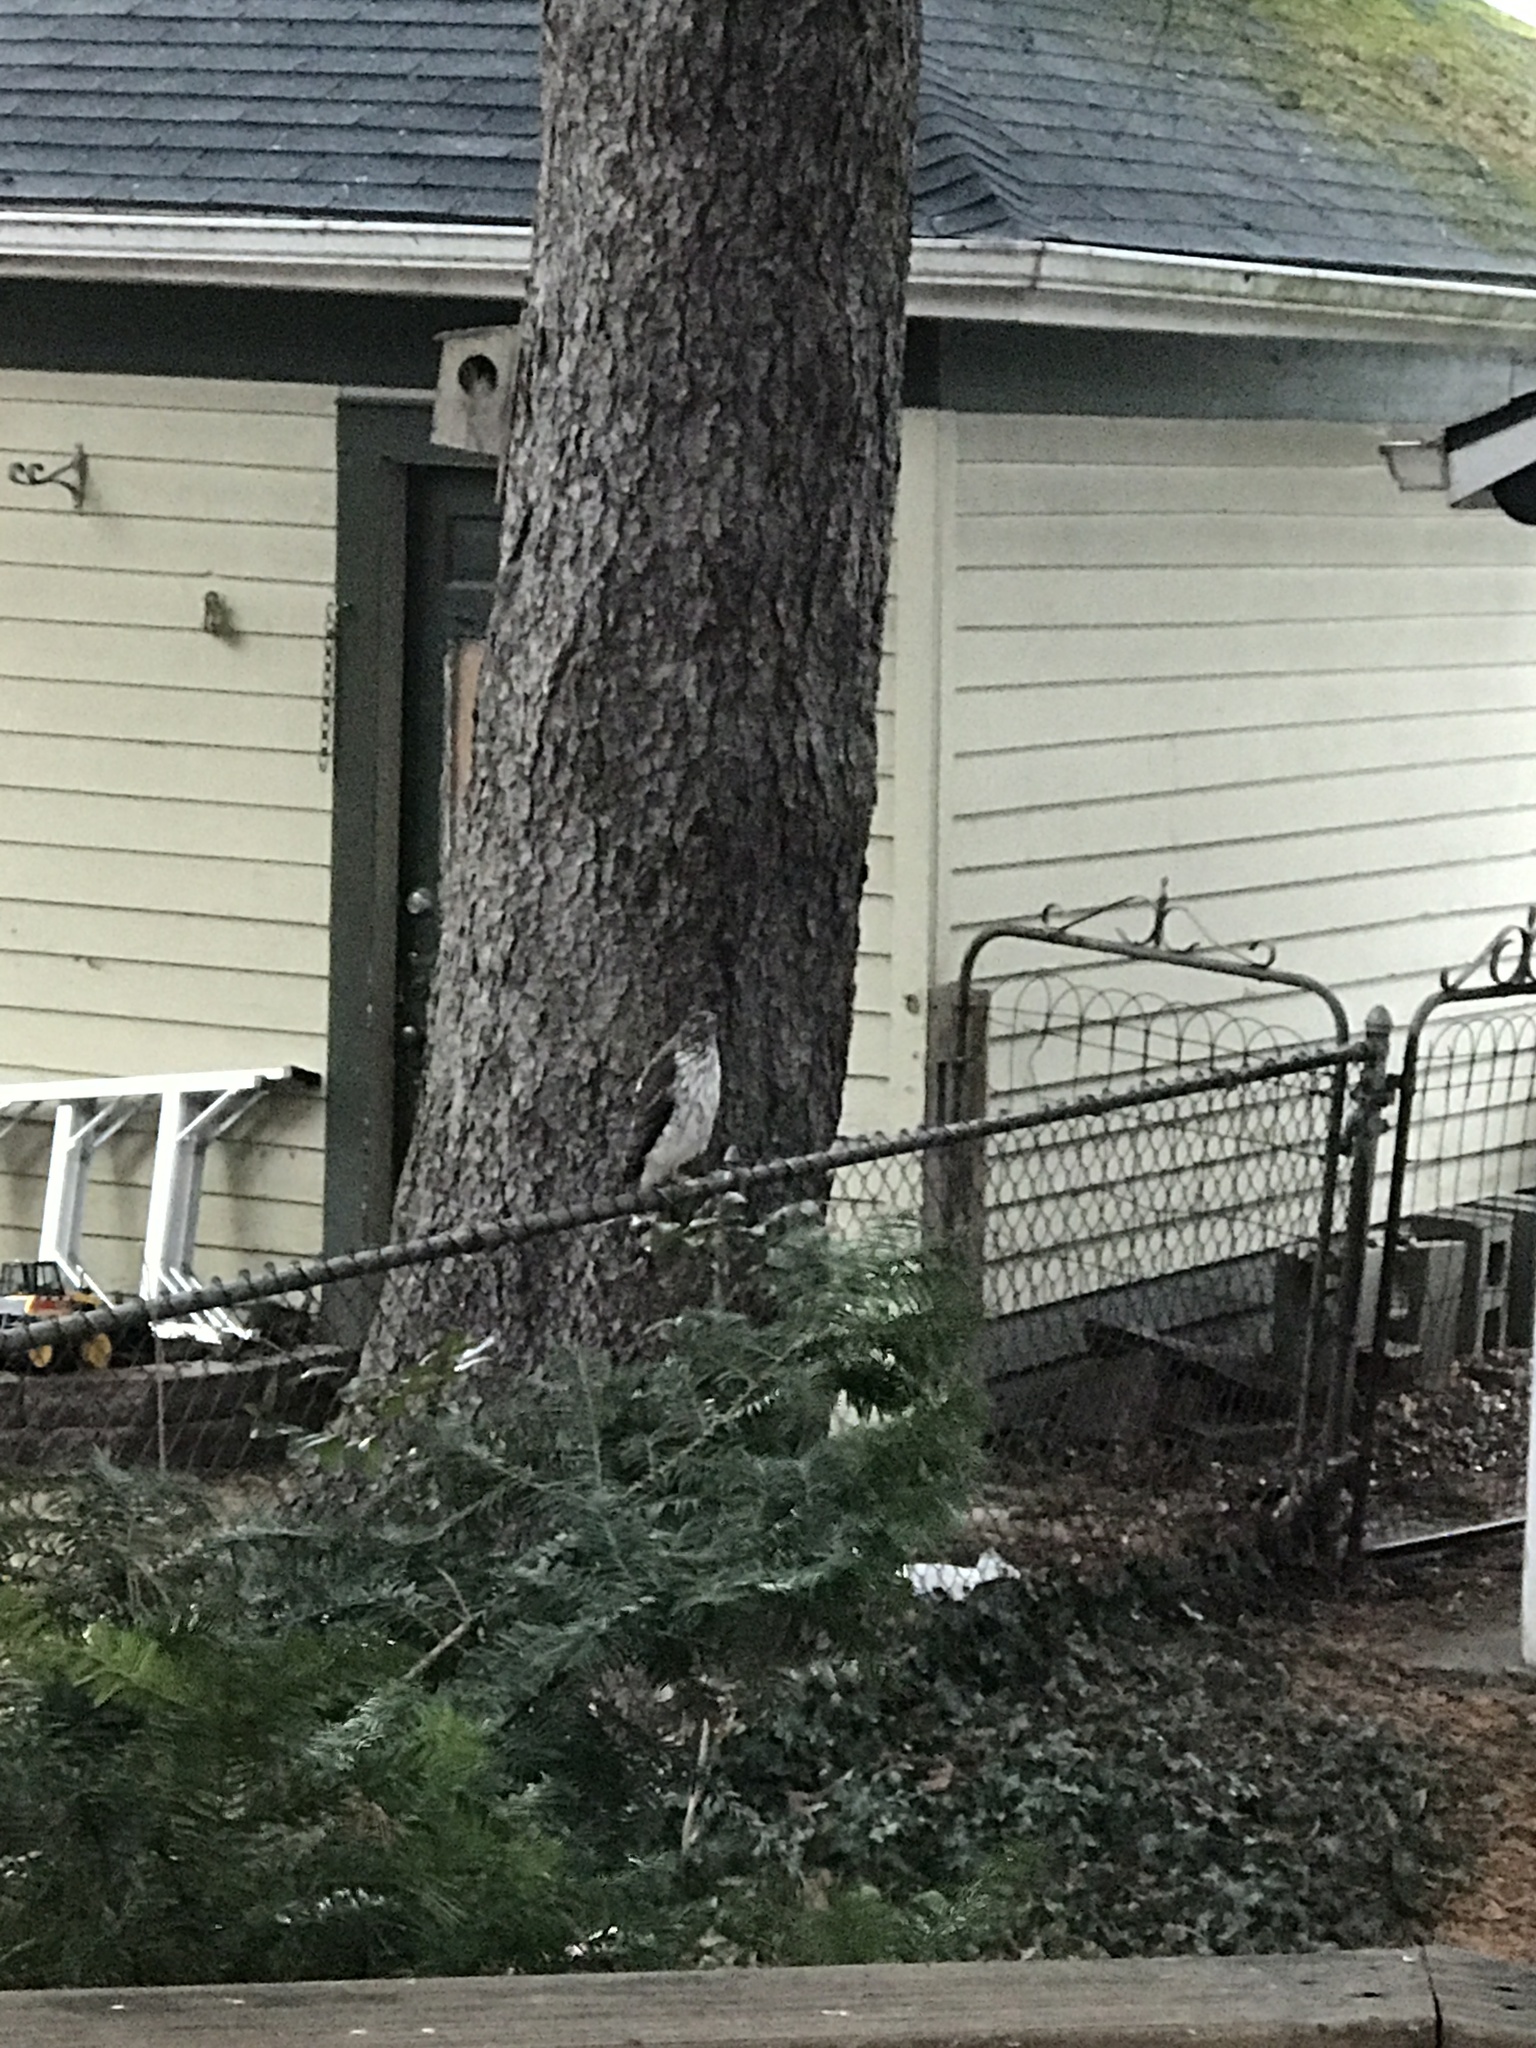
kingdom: Animalia
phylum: Chordata
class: Aves
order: Accipitriformes
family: Accipitridae
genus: Accipiter
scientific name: Accipiter cooperii
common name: Cooper's hawk
